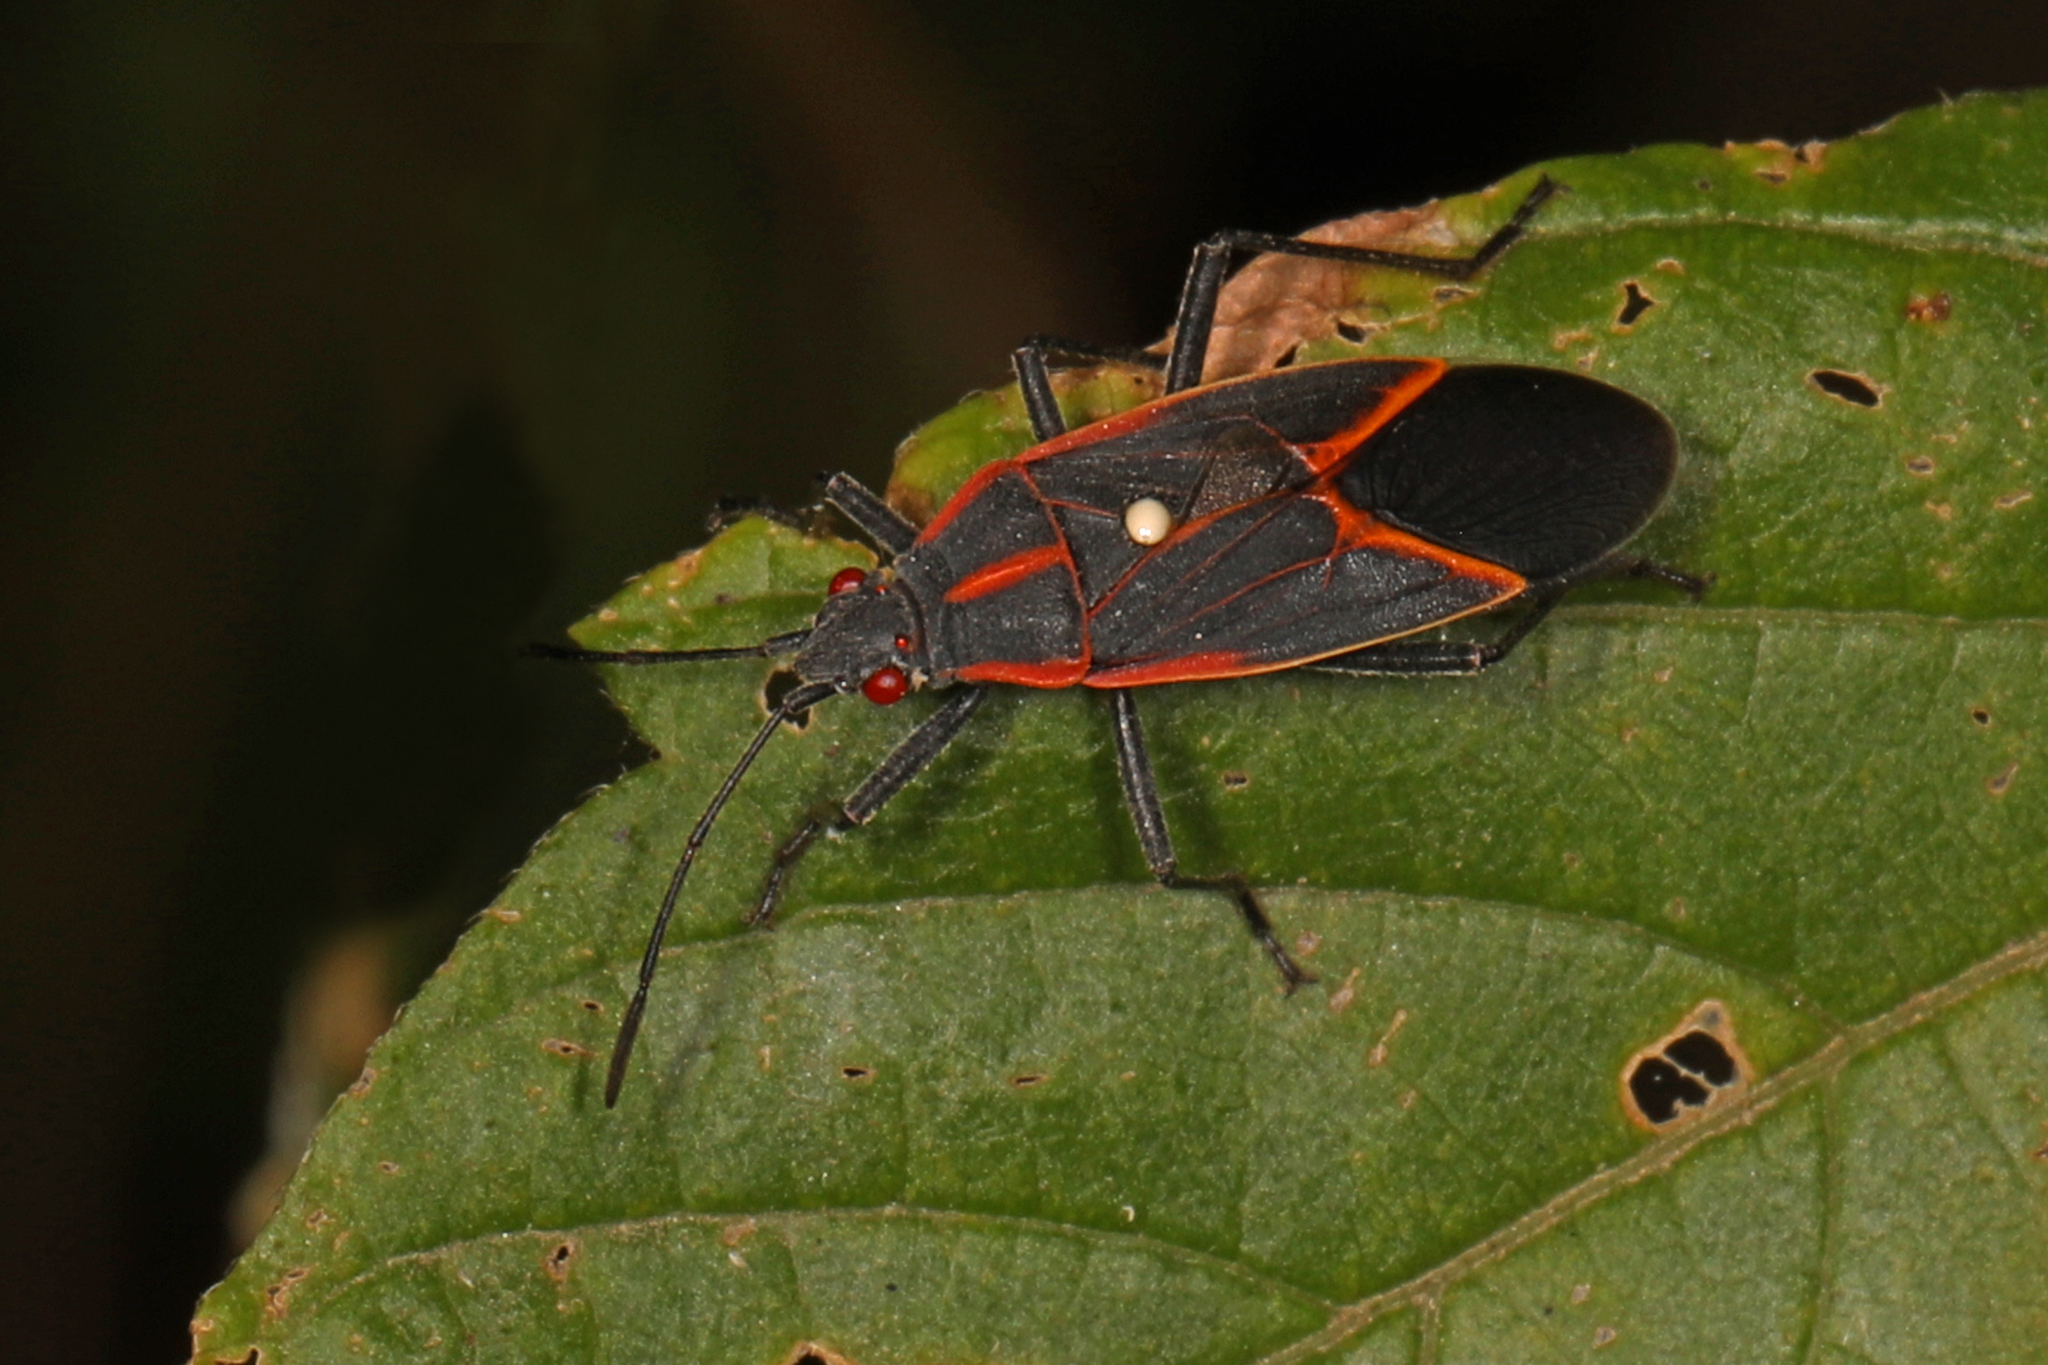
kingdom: Animalia
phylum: Arthropoda
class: Insecta
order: Hemiptera
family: Rhopalidae
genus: Boisea
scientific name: Boisea trivittata
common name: Boxelder bug
